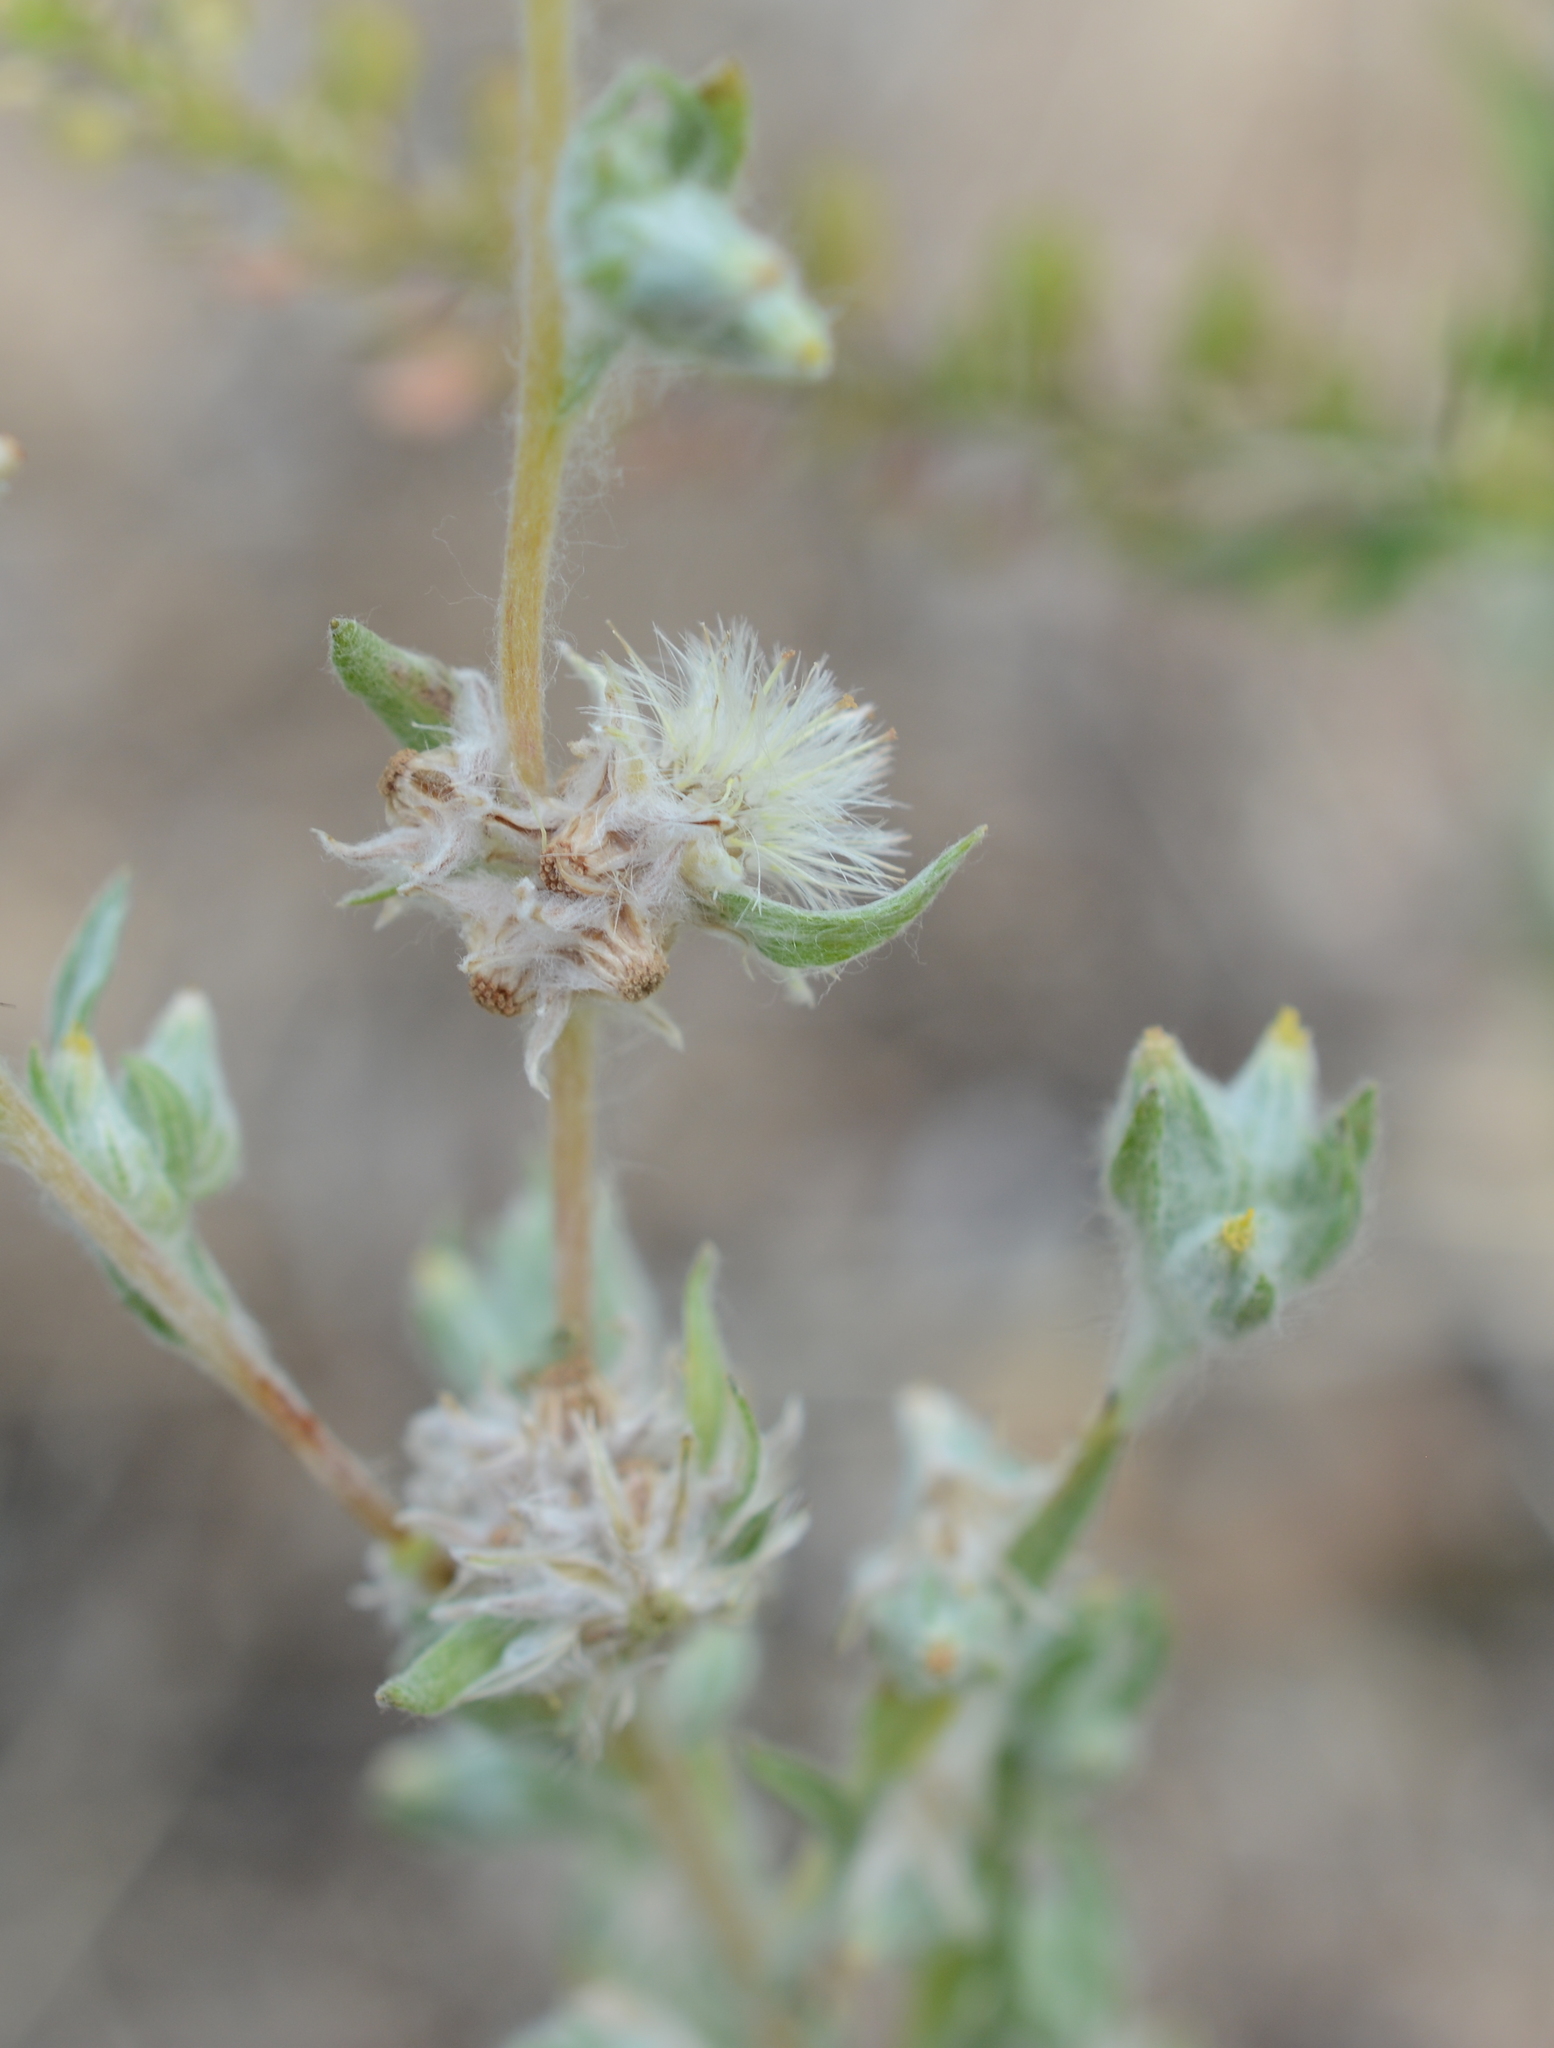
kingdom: Plantae
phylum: Tracheophyta
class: Magnoliopsida
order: Asterales
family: Asteraceae
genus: Filago
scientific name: Filago arvensis
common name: Field cudweed
